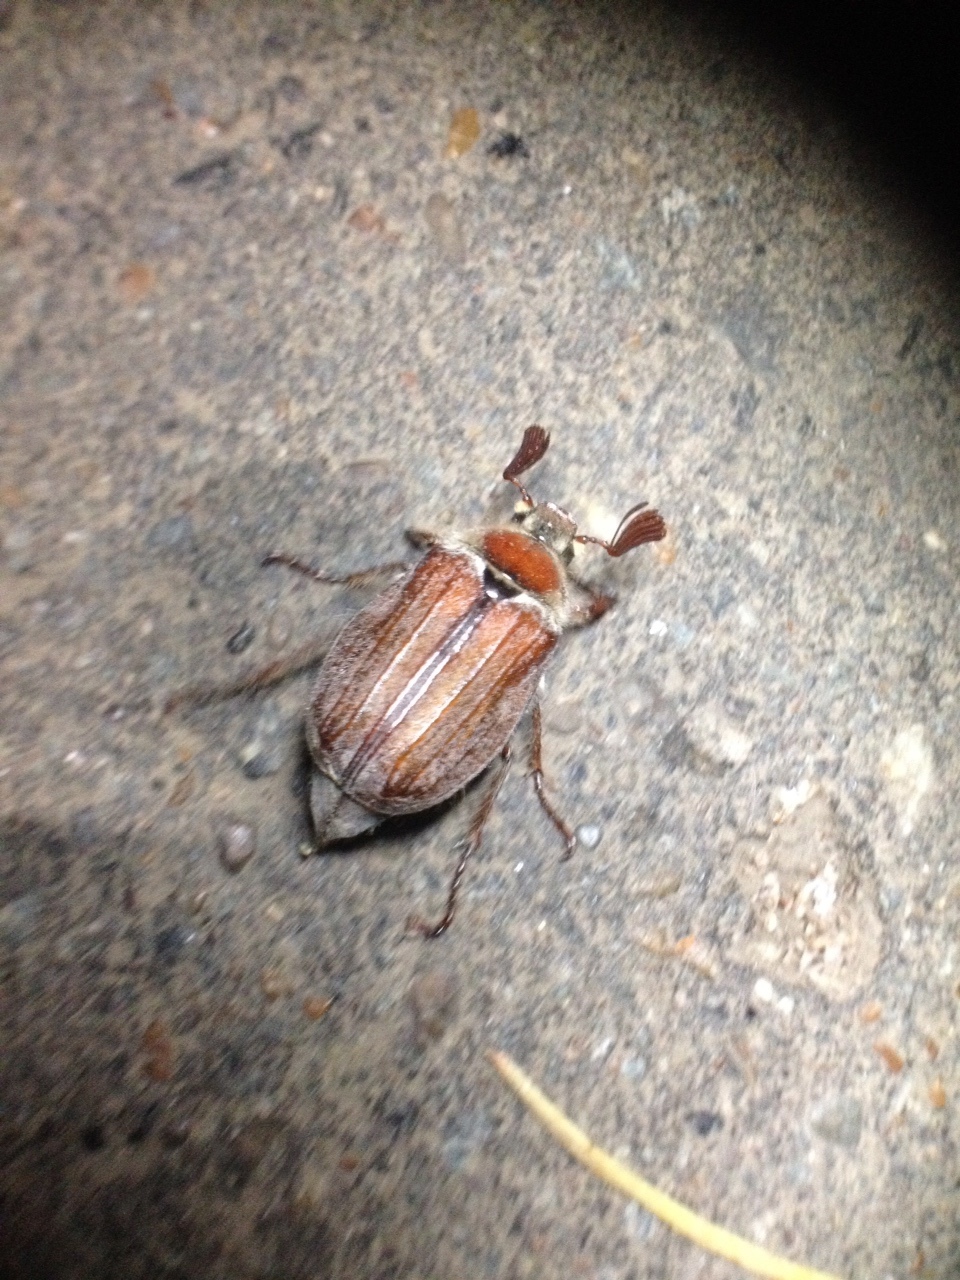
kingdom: Animalia
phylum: Arthropoda
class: Insecta
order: Coleoptera
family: Scarabaeidae
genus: Melolontha
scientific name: Melolontha hippocastani
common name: Chestnut cockchafer
